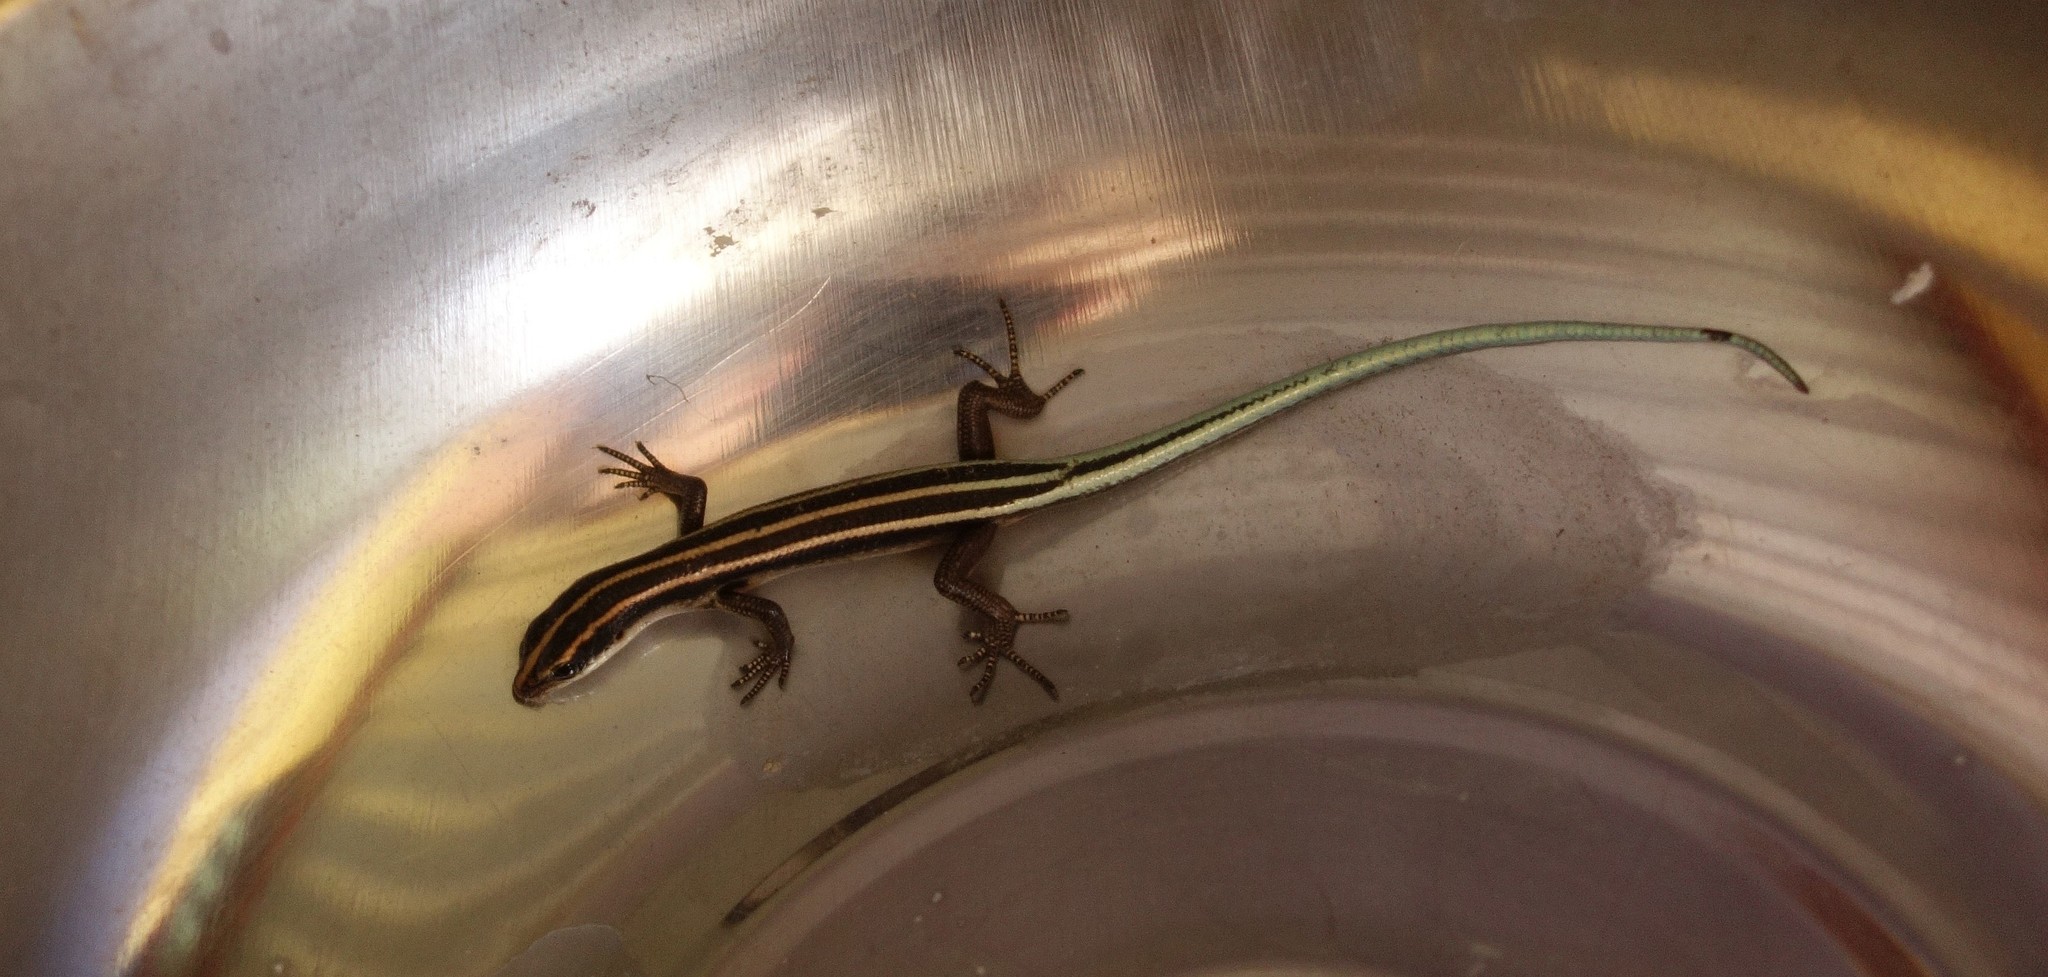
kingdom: Animalia
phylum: Chordata
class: Squamata
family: Scincidae
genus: Emoia
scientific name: Emoia caeruleocauda
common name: Pacific bluetail skink
